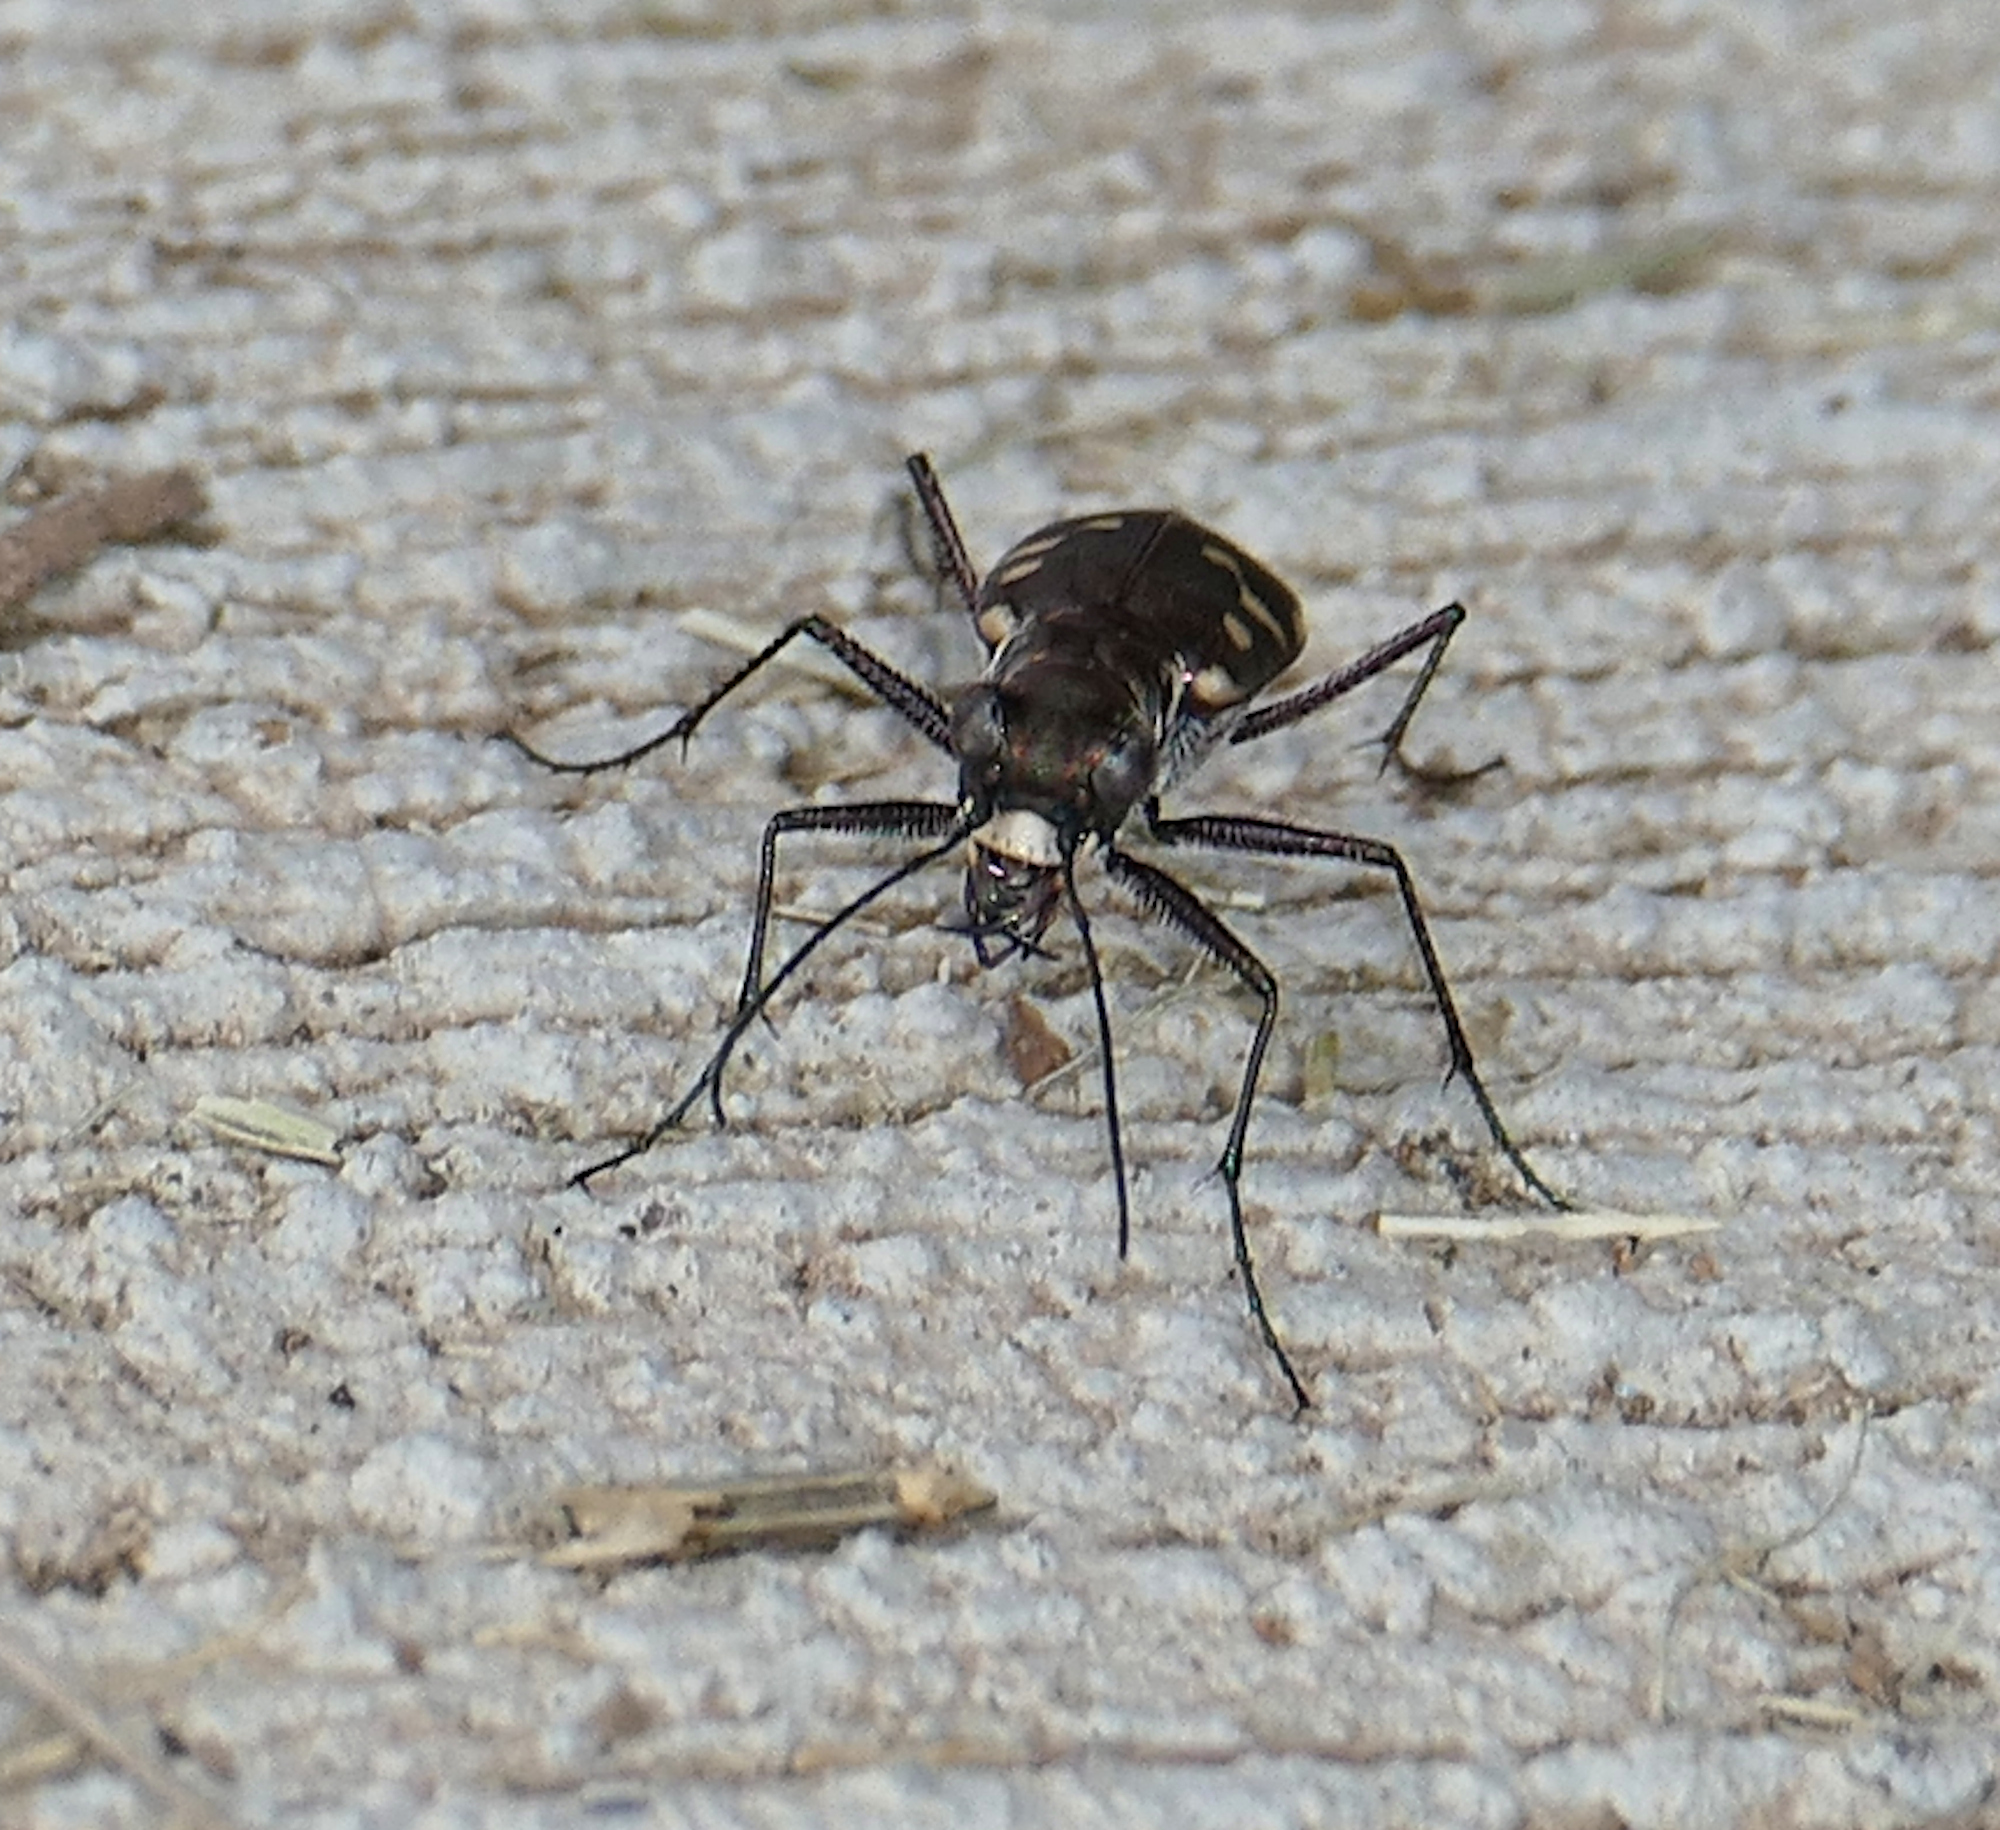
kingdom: Animalia
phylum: Arthropoda
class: Insecta
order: Coleoptera
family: Carabidae
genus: Cicindela
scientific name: Cicindela sedecimpunctata
